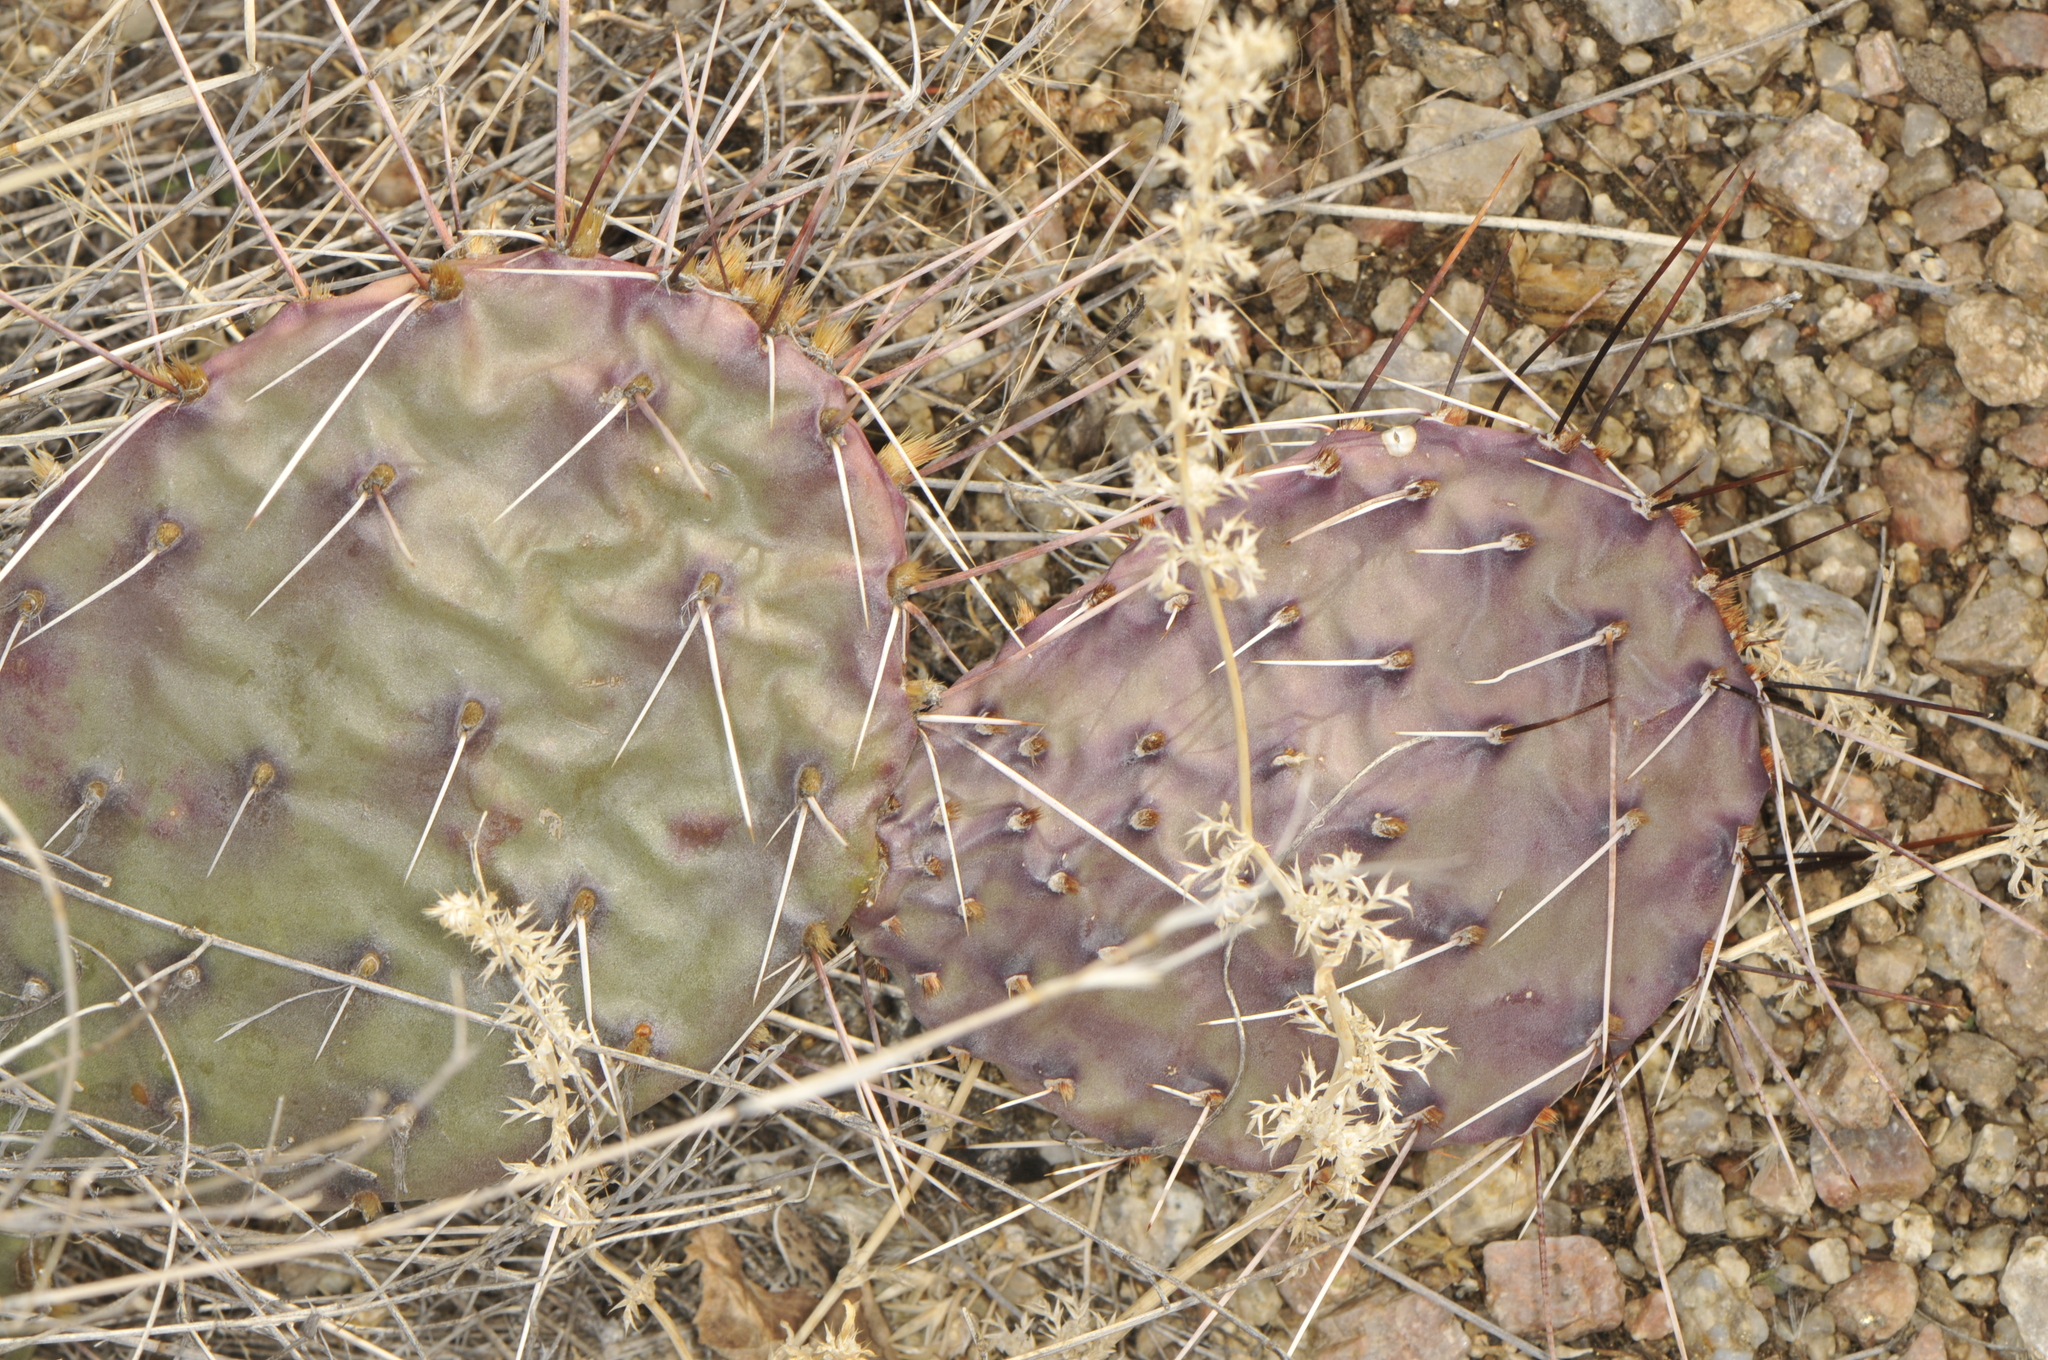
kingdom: Plantae
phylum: Tracheophyta
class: Magnoliopsida
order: Caryophyllales
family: Cactaceae
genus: Opuntia
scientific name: Opuntia macrorhiza
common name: Grassland pricklypear
